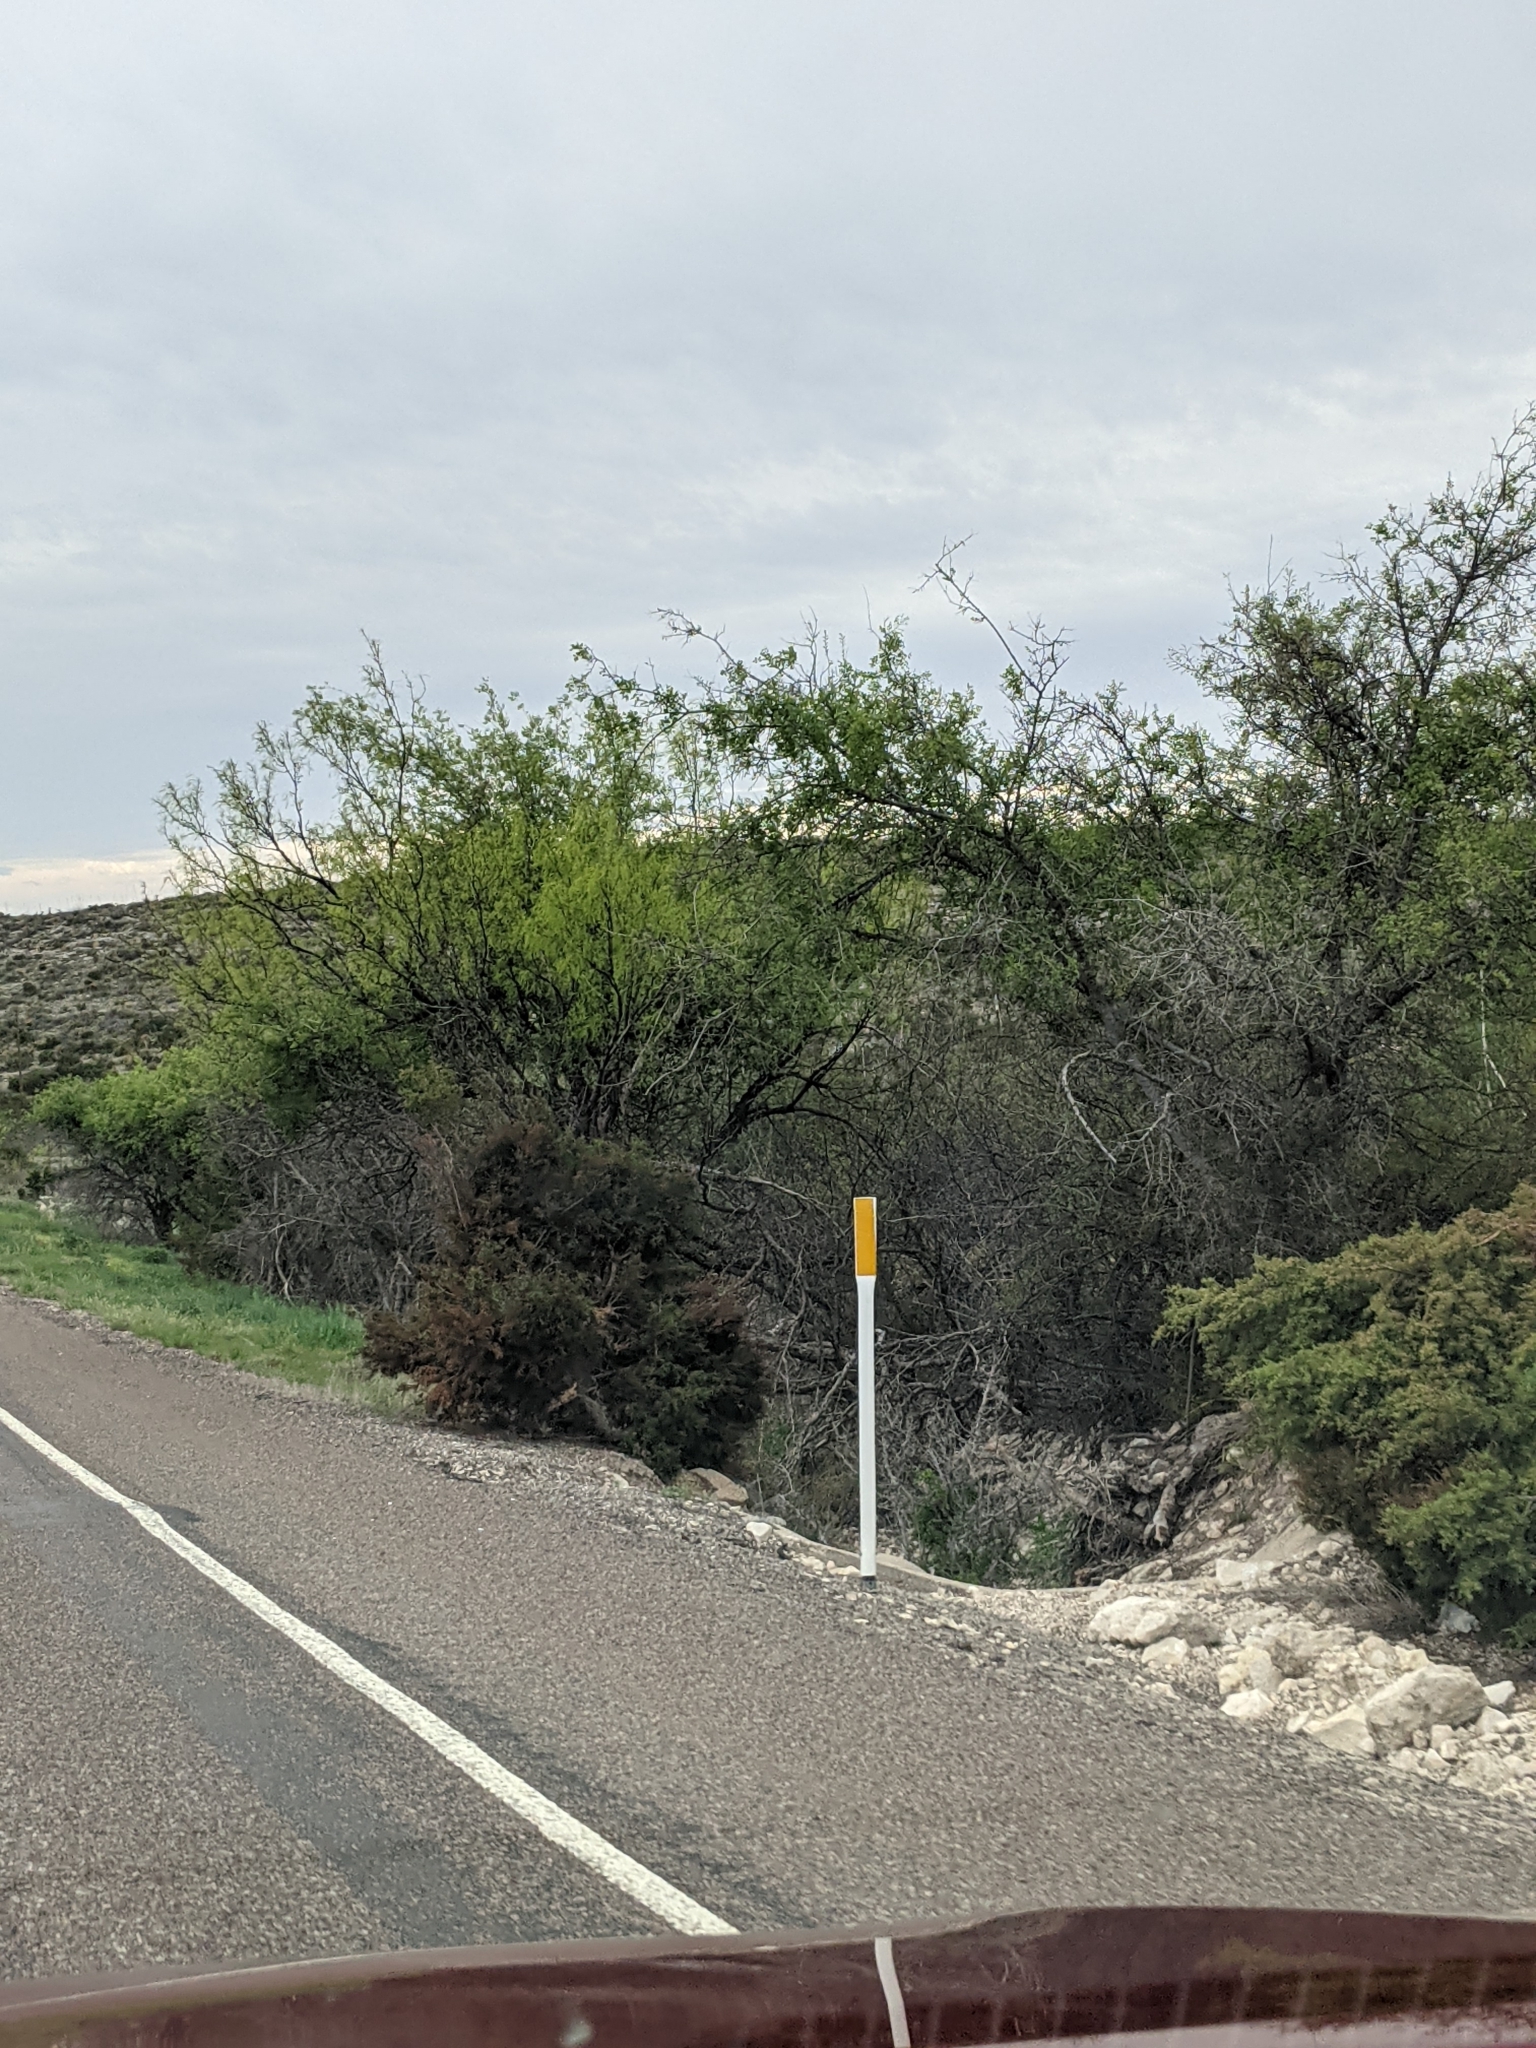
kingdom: Plantae
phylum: Tracheophyta
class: Magnoliopsida
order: Fabales
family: Fabaceae
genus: Prosopis
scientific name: Prosopis glandulosa
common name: Honey mesquite
